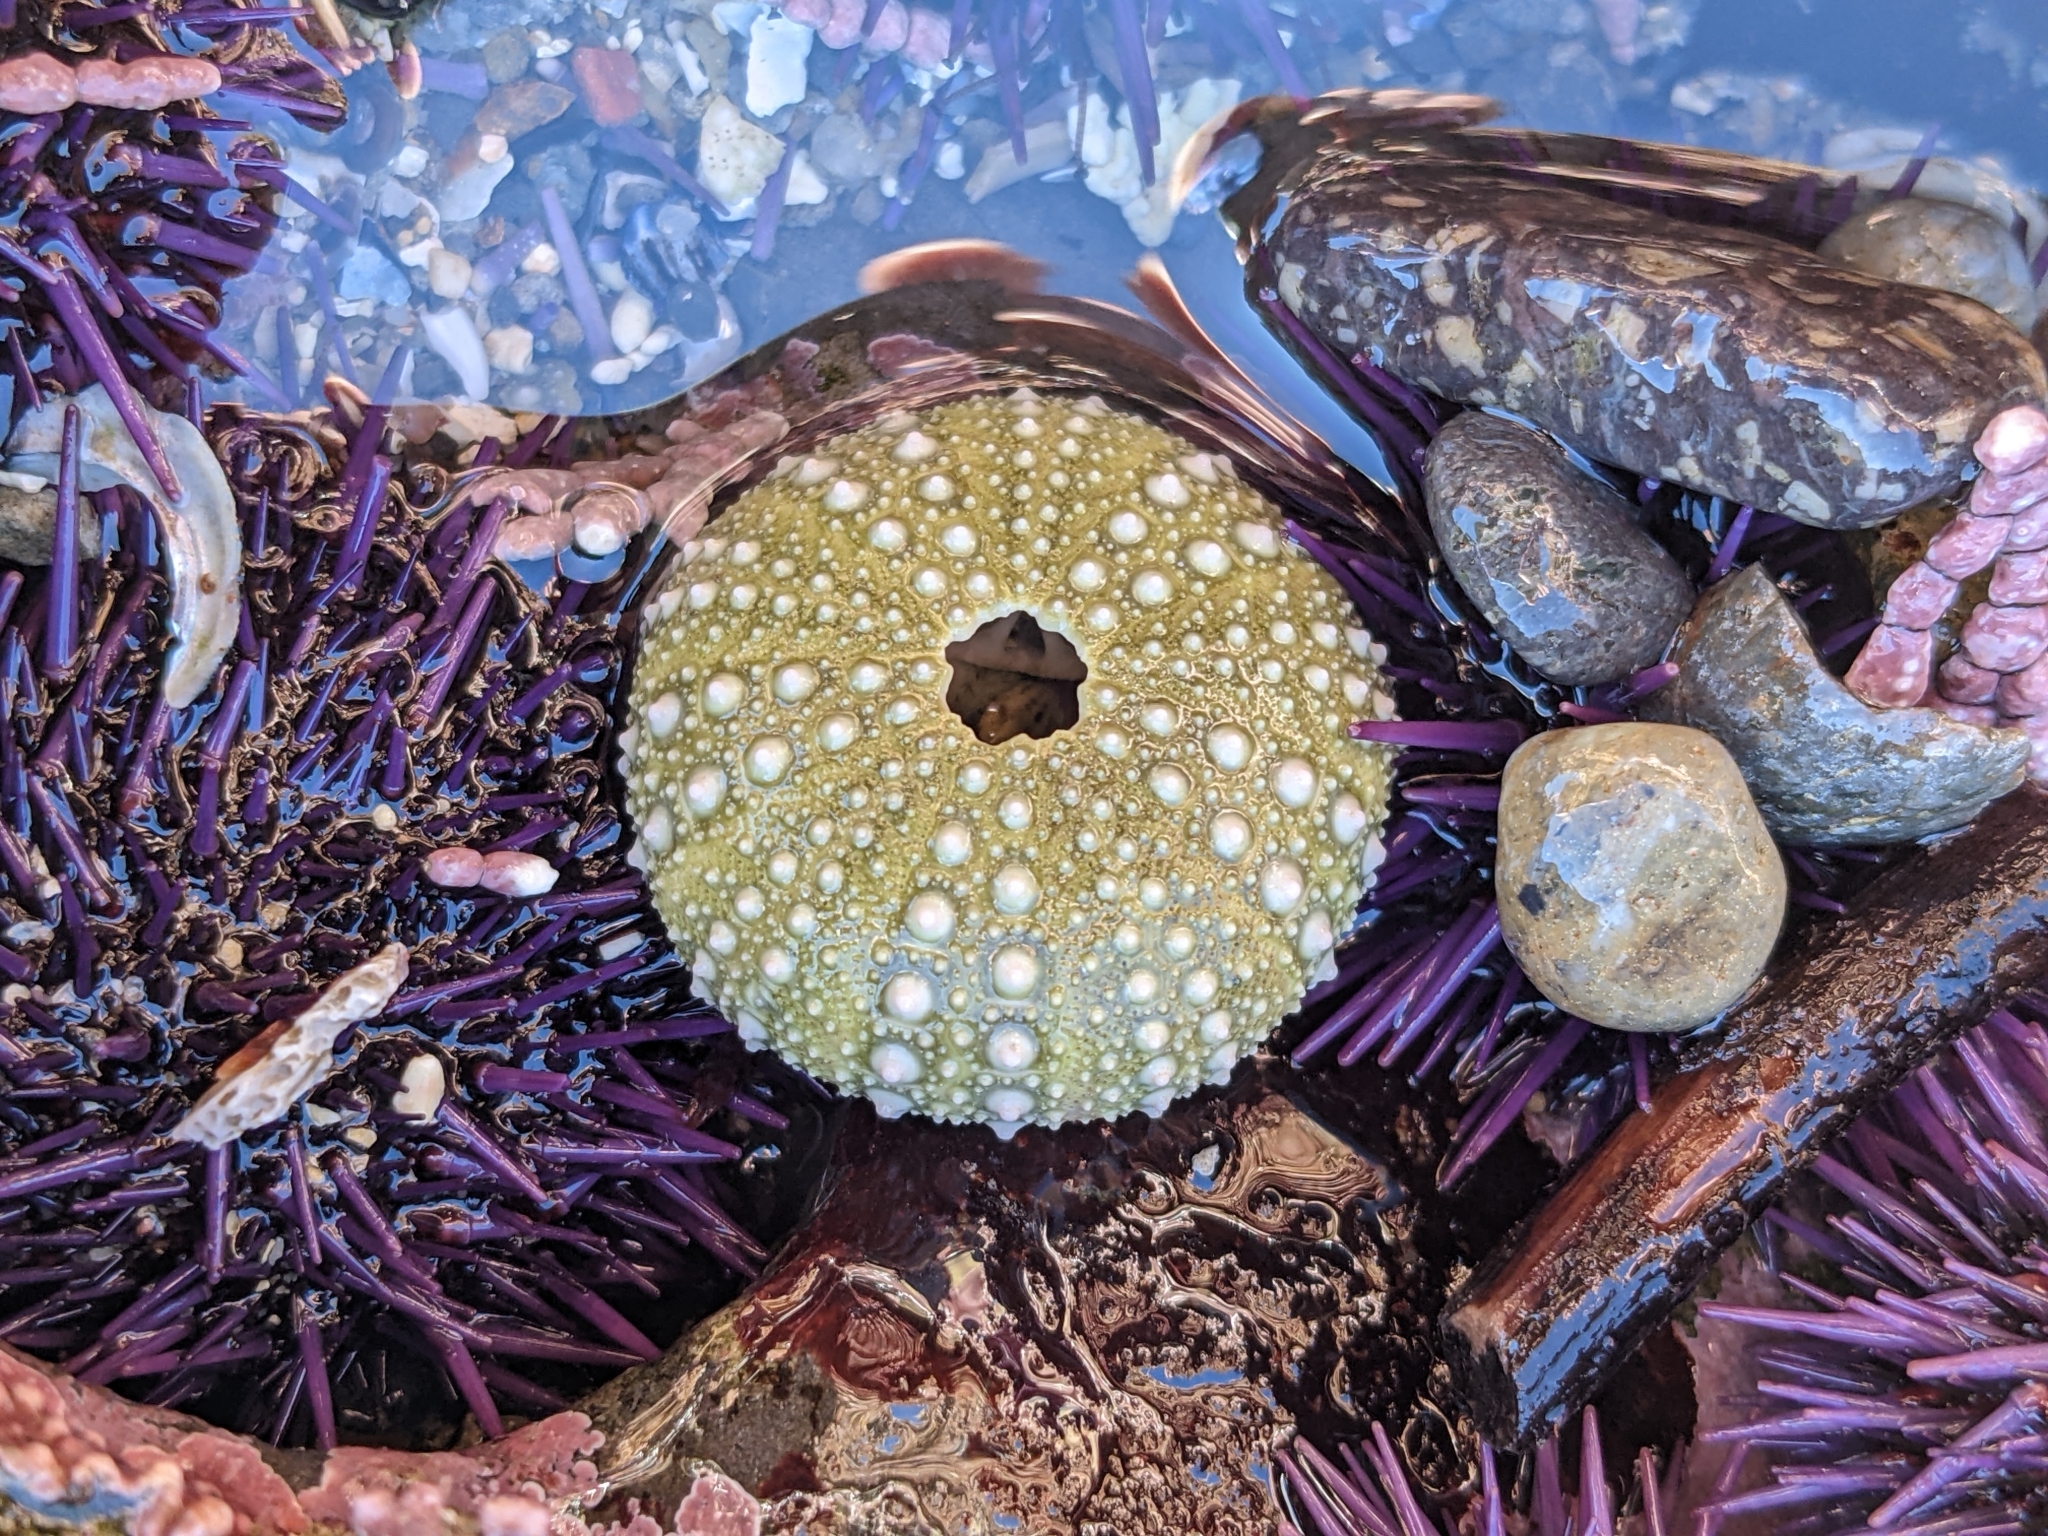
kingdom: Animalia
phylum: Echinodermata
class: Echinoidea
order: Camarodonta
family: Strongylocentrotidae
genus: Strongylocentrotus
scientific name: Strongylocentrotus purpuratus
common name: Purple sea urchin
